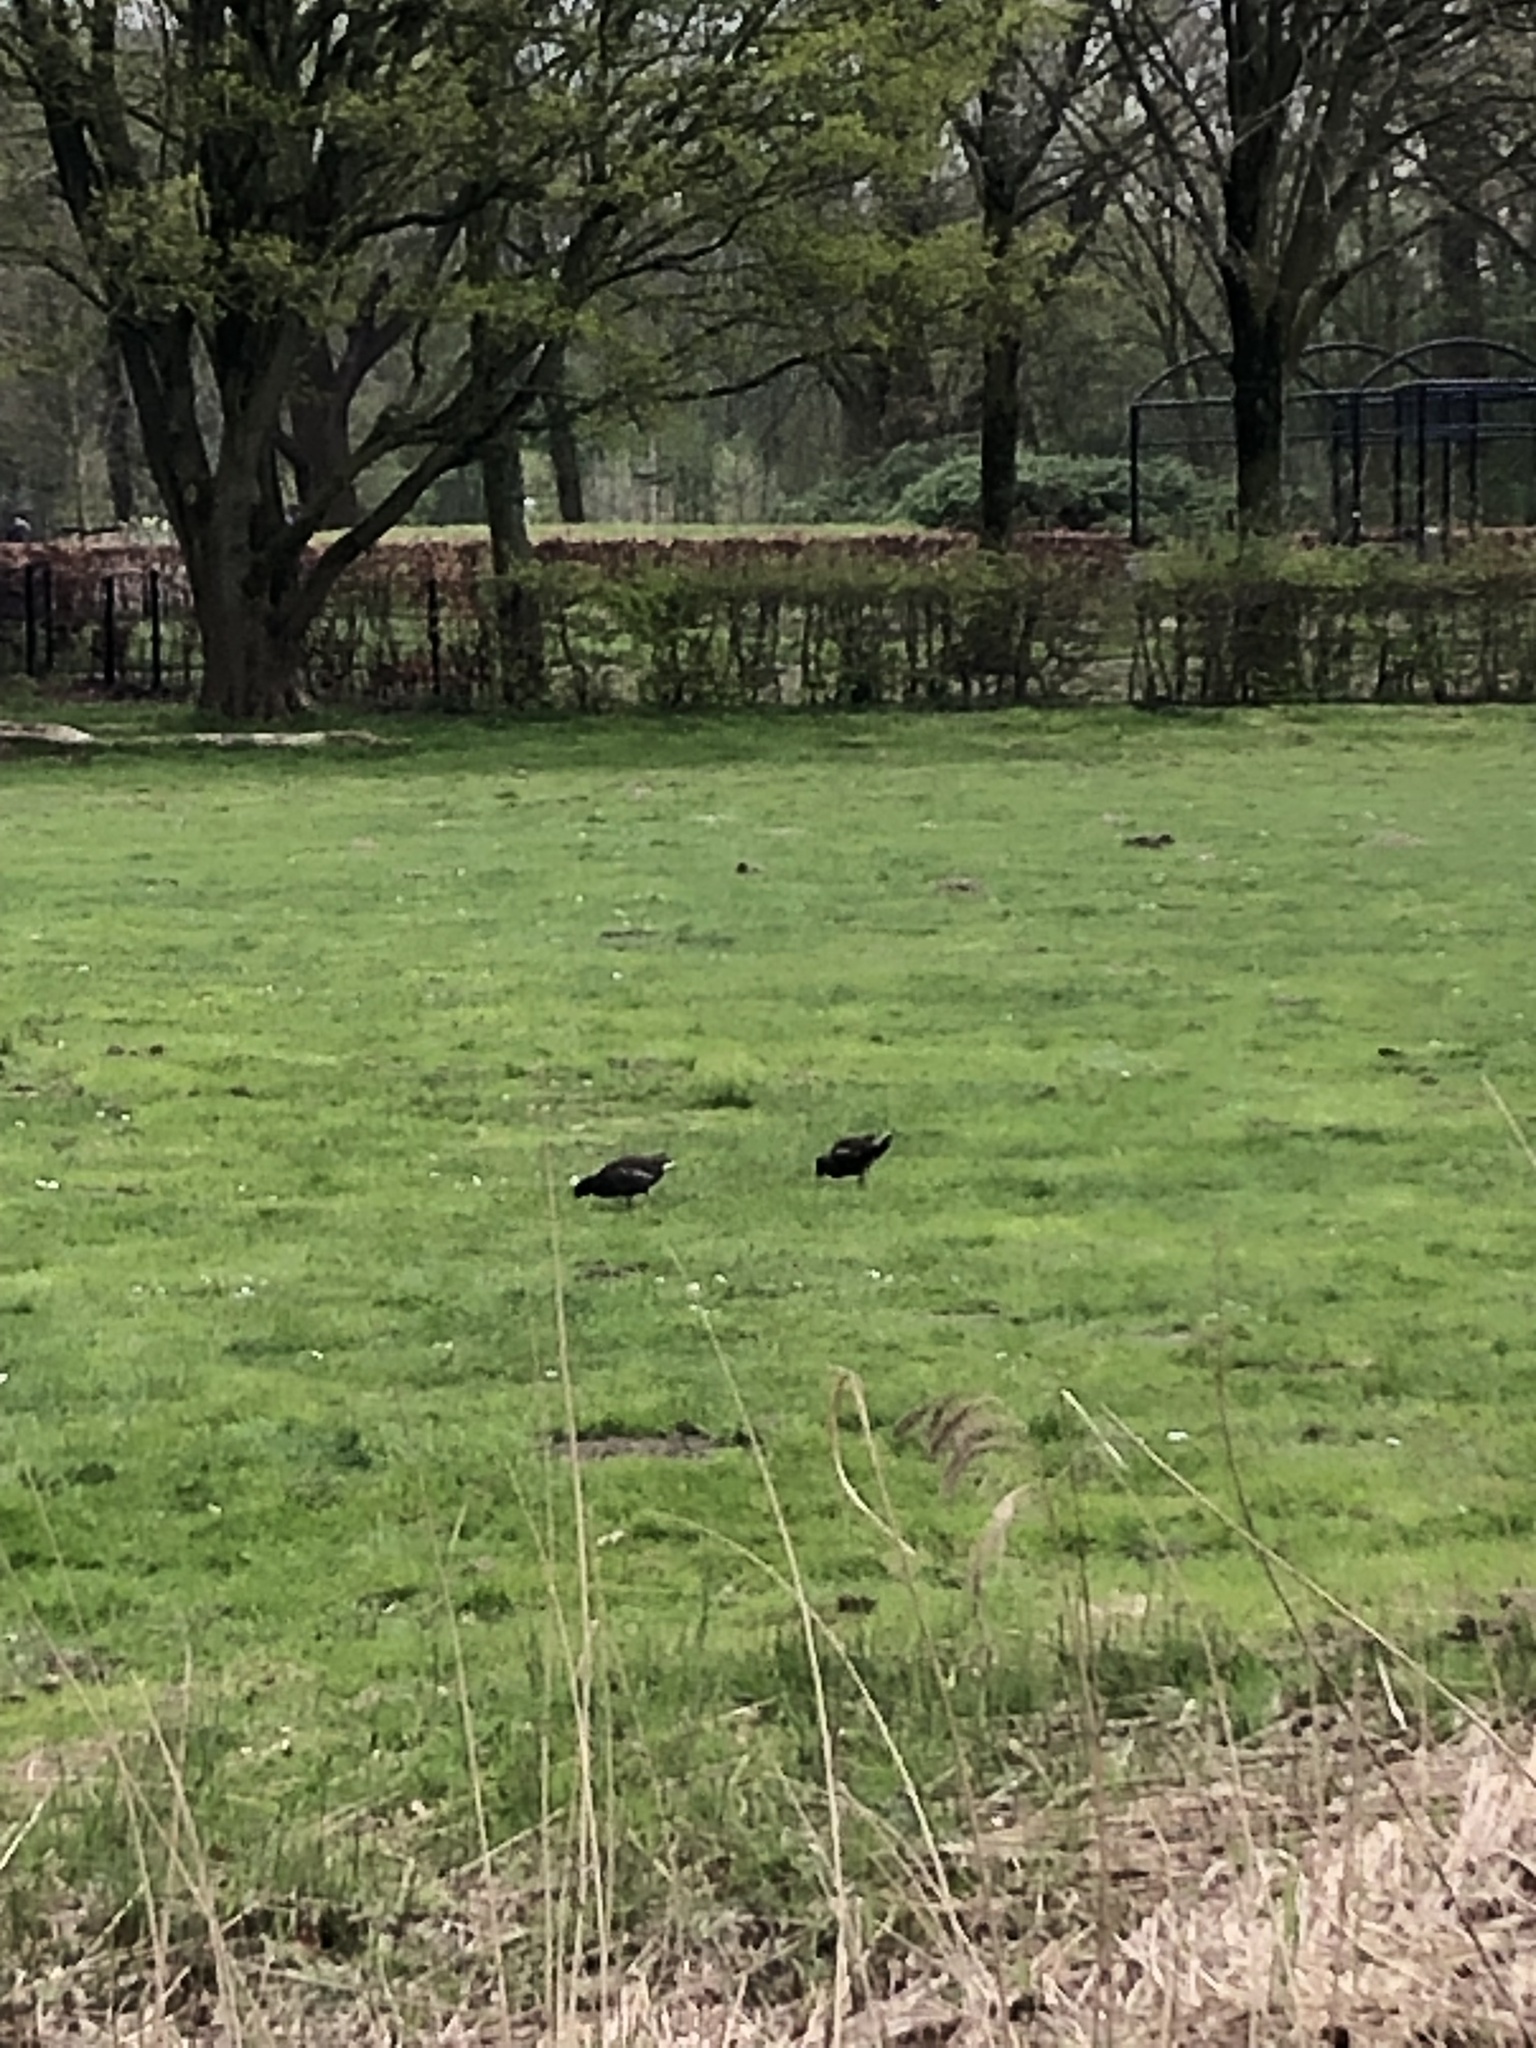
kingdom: Animalia
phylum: Chordata
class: Aves
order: Gruiformes
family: Rallidae
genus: Gallinula
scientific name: Gallinula chloropus
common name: Common moorhen
